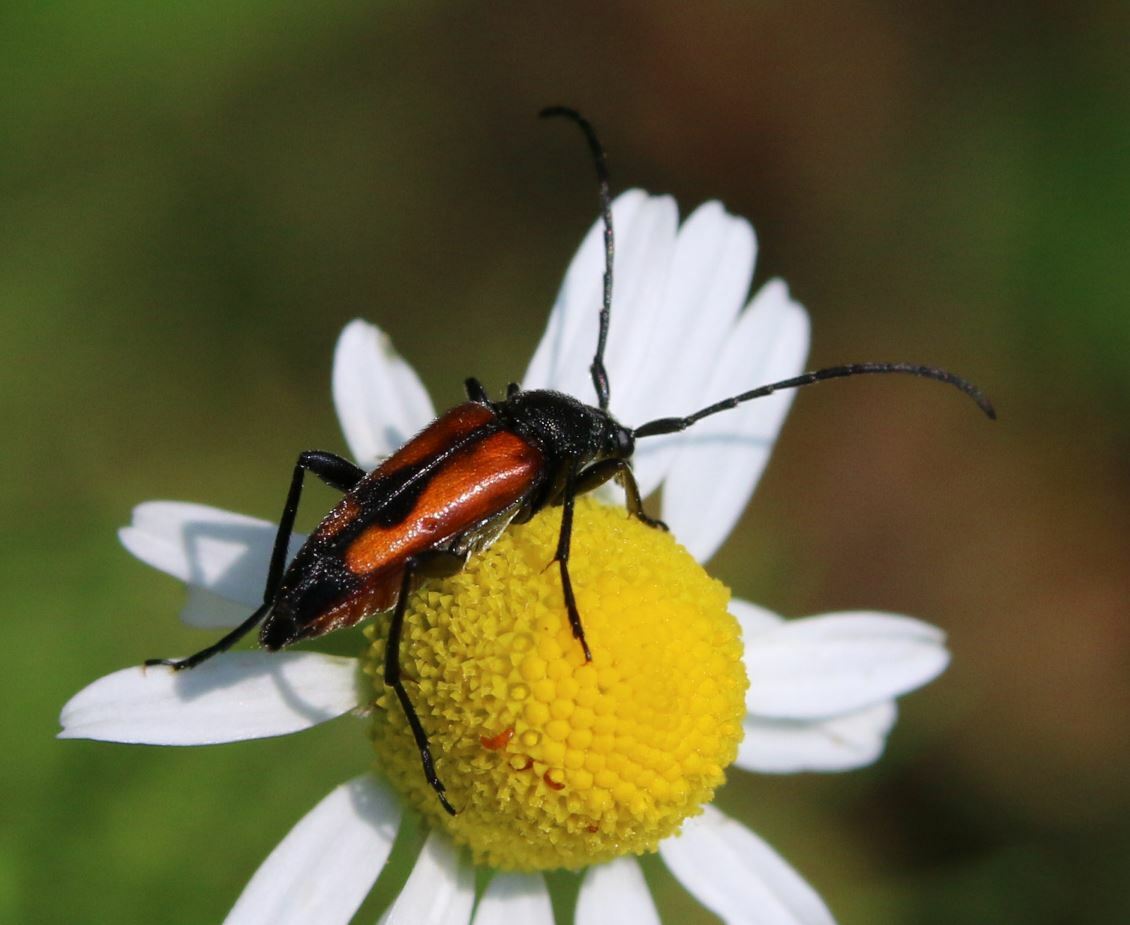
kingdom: Animalia
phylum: Arthropoda
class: Insecta
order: Coleoptera
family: Cerambycidae
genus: Stenurella
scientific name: Stenurella bifasciata
